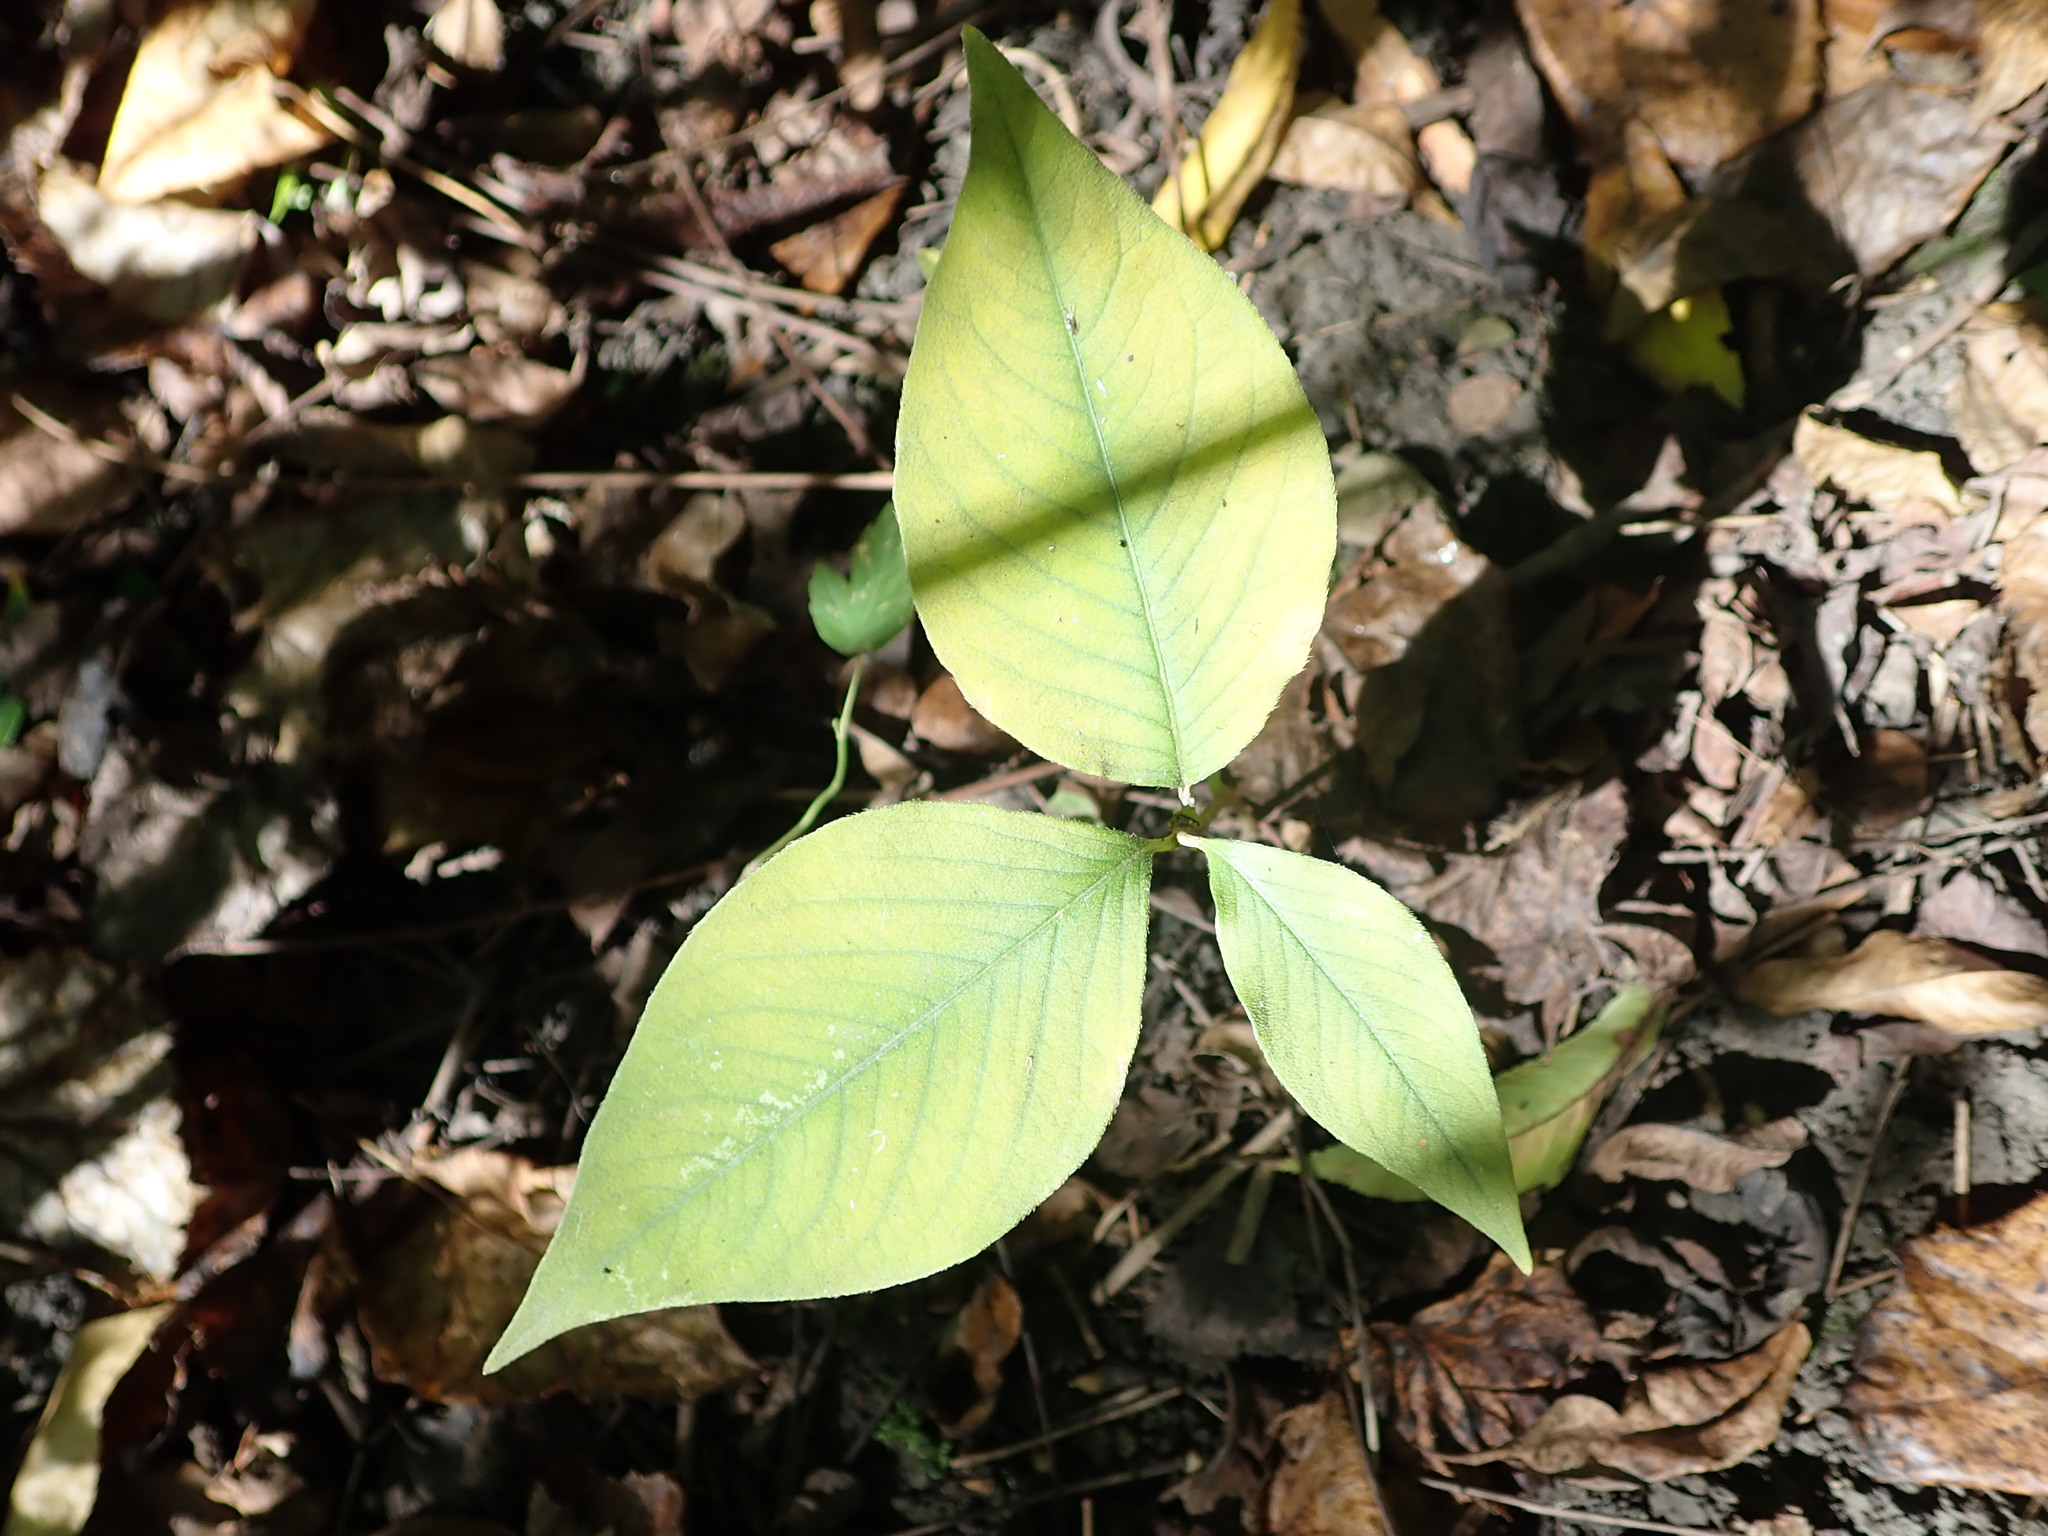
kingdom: Plantae
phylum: Tracheophyta
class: Liliopsida
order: Alismatales
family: Araceae
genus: Arisaema
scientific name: Arisaema triphyllum
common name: Jack-in-the-pulpit
